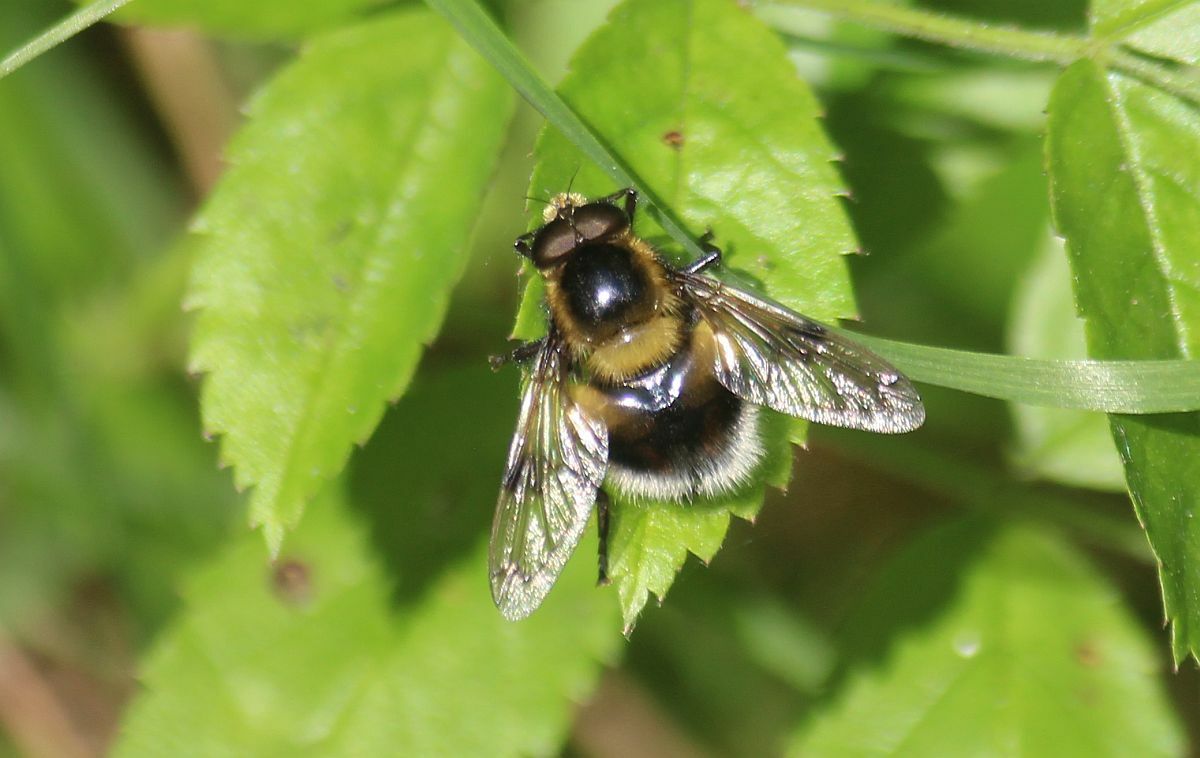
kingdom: Animalia
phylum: Arthropoda
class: Insecta
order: Diptera
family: Syrphidae
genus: Volucella
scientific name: Volucella bombylans
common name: Bumble bee hover fly
